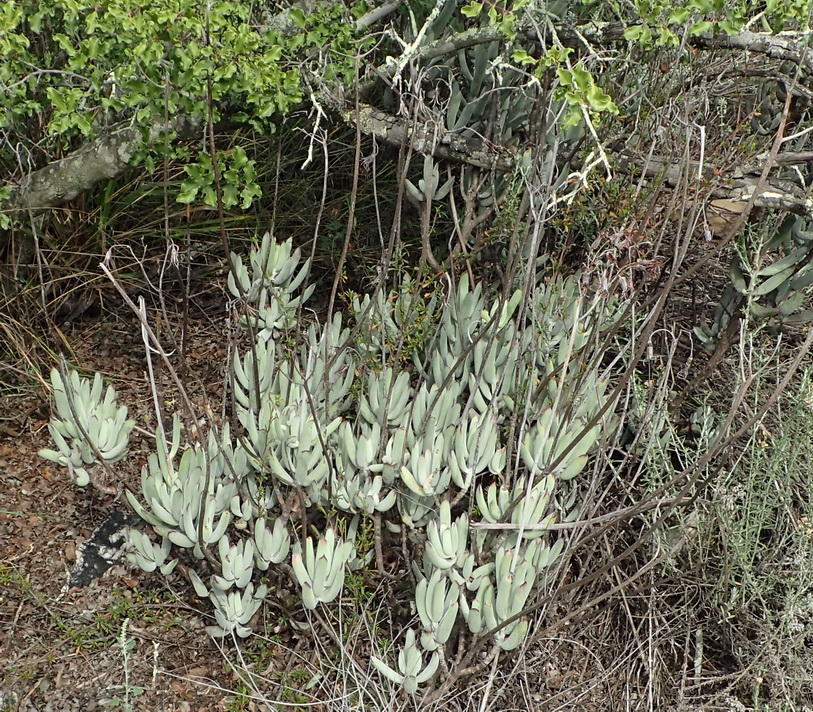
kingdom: Plantae
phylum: Tracheophyta
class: Magnoliopsida
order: Saxifragales
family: Crassulaceae
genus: Cotyledon
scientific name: Cotyledon orbiculata
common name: Pig's ear
